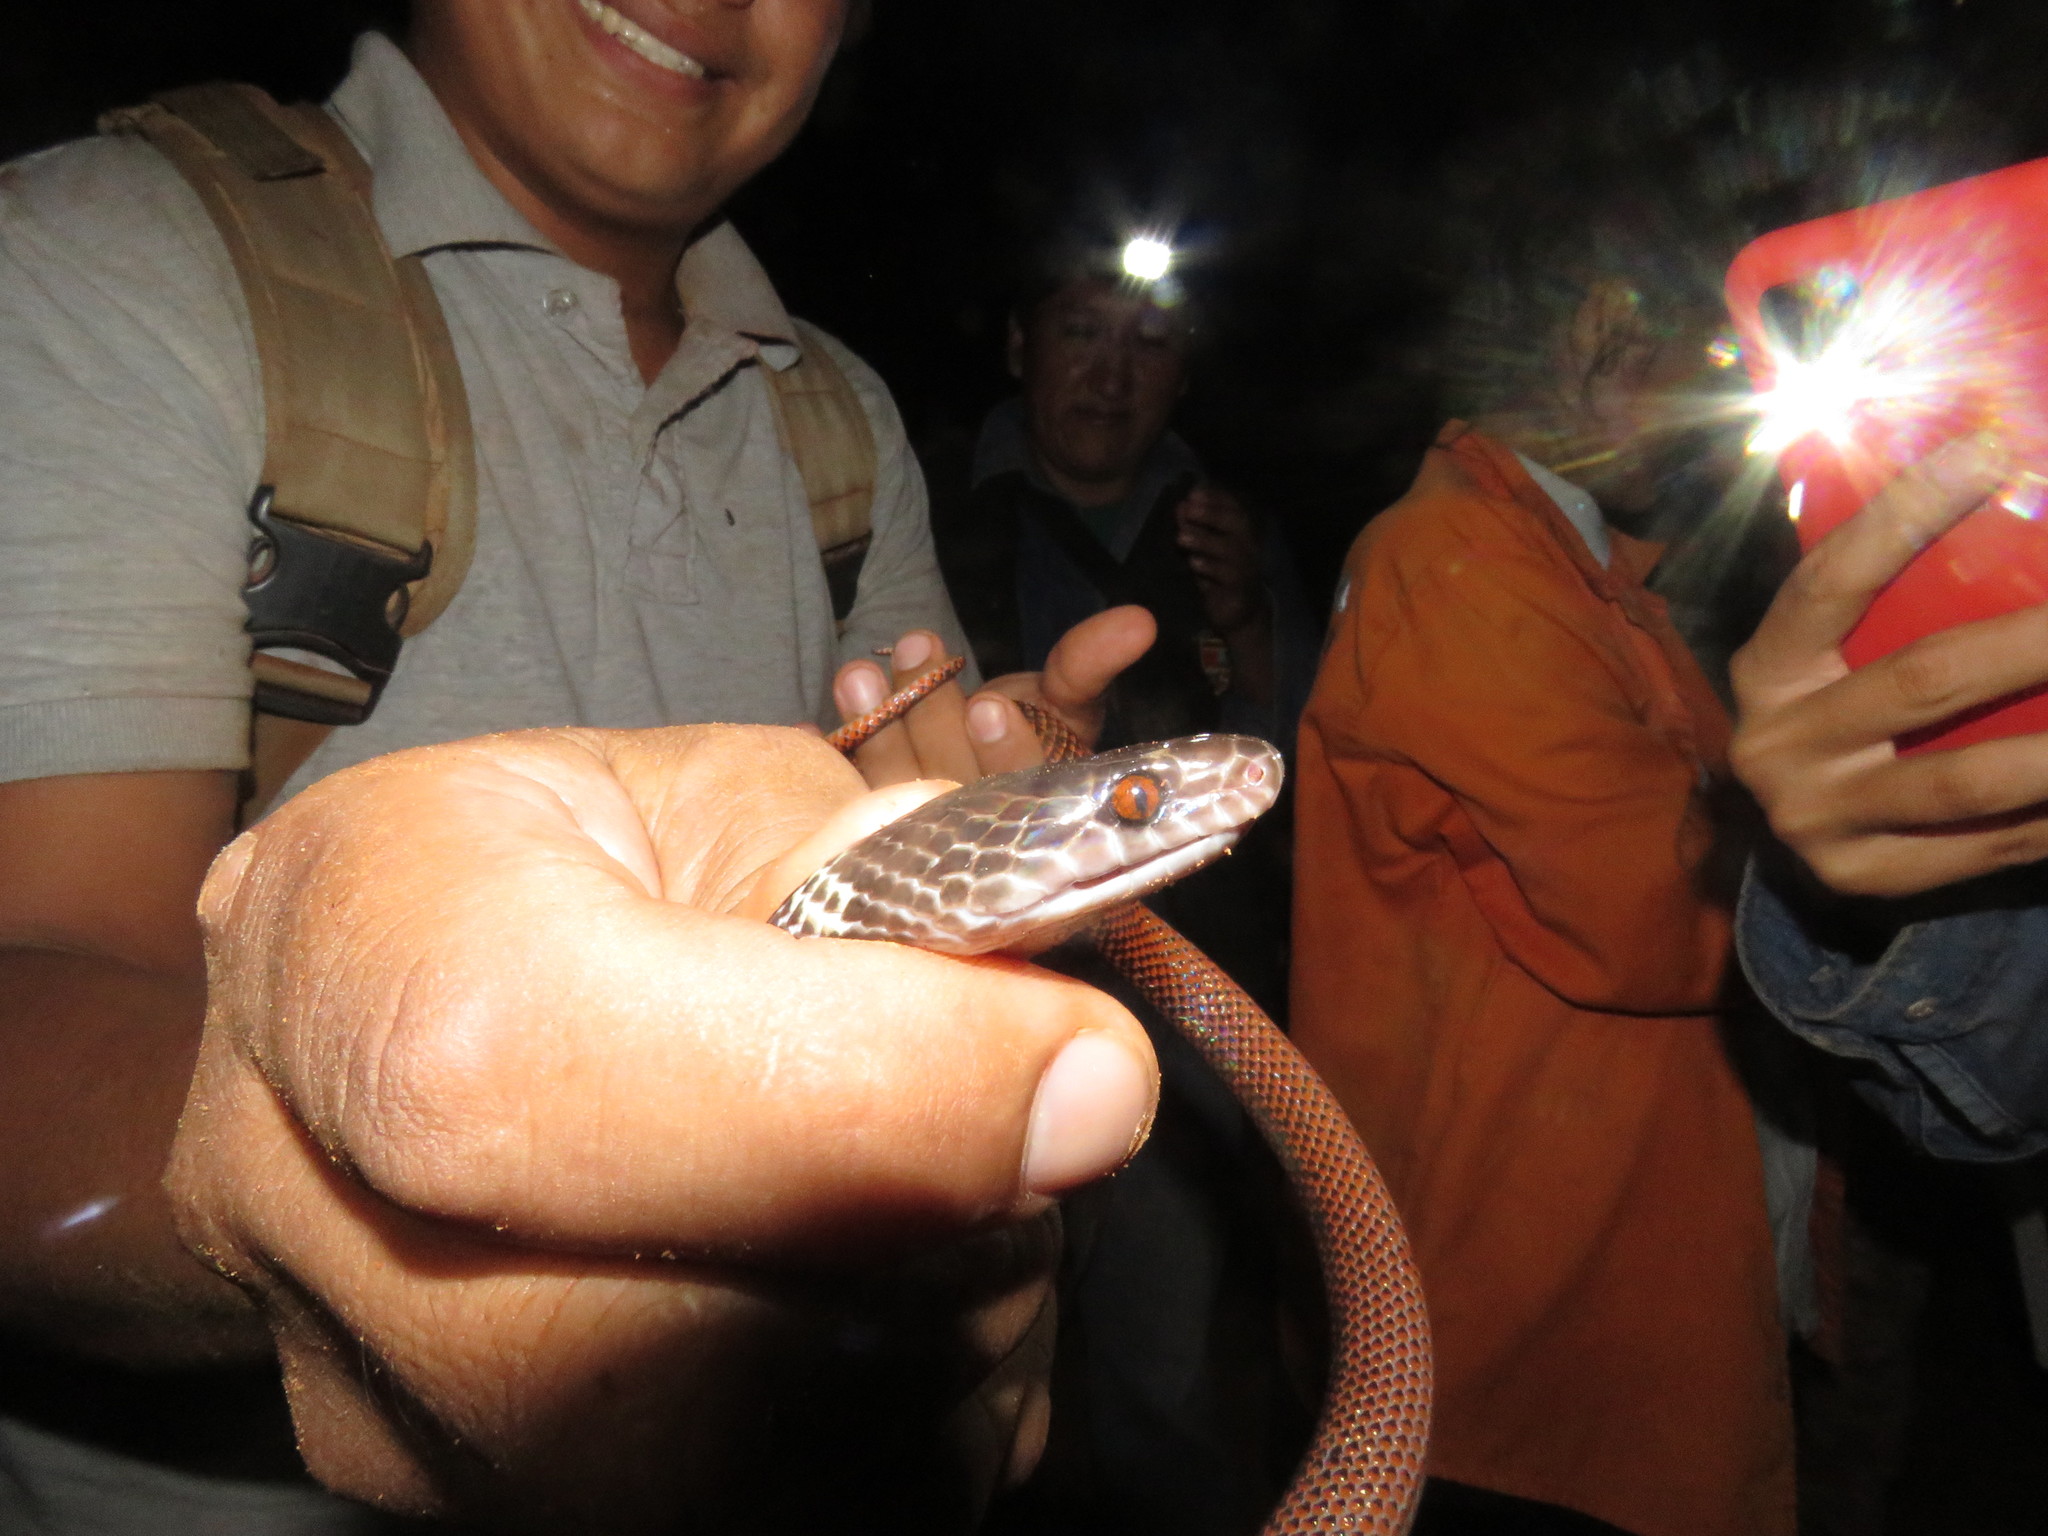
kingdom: Animalia
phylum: Chordata
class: Squamata
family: Colubridae
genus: Oxyrhopus
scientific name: Oxyrhopus melanogenys
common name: Tschudi's false coral snake
